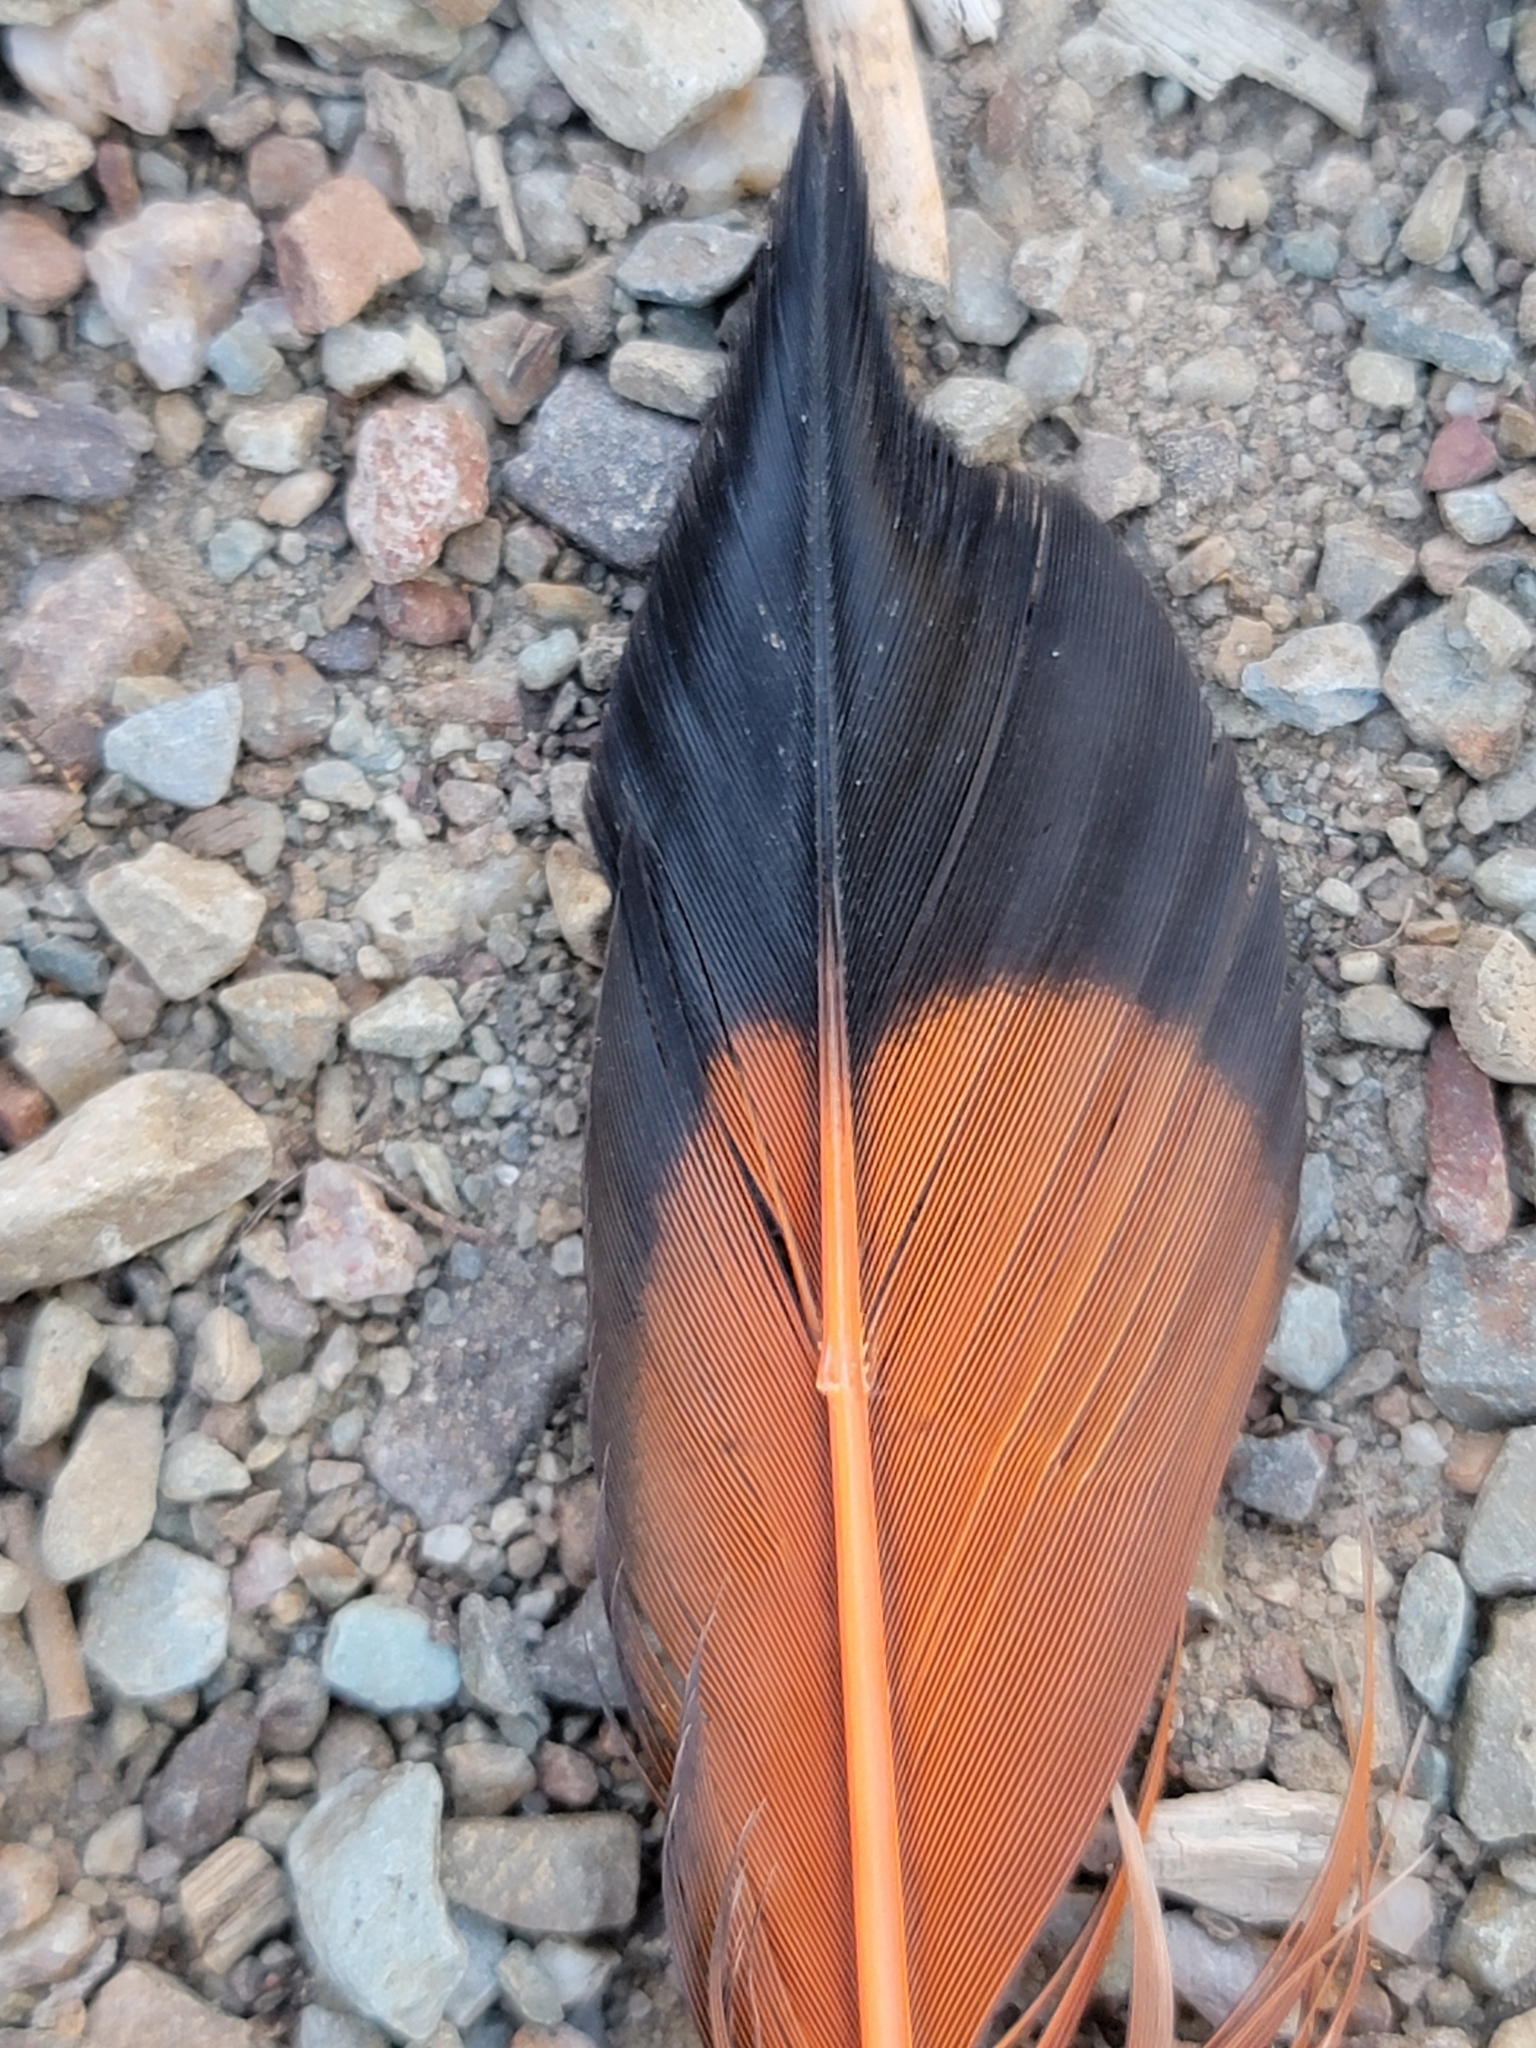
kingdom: Animalia
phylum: Chordata
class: Aves
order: Piciformes
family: Picidae
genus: Colaptes
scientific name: Colaptes auratus
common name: Northern flicker
